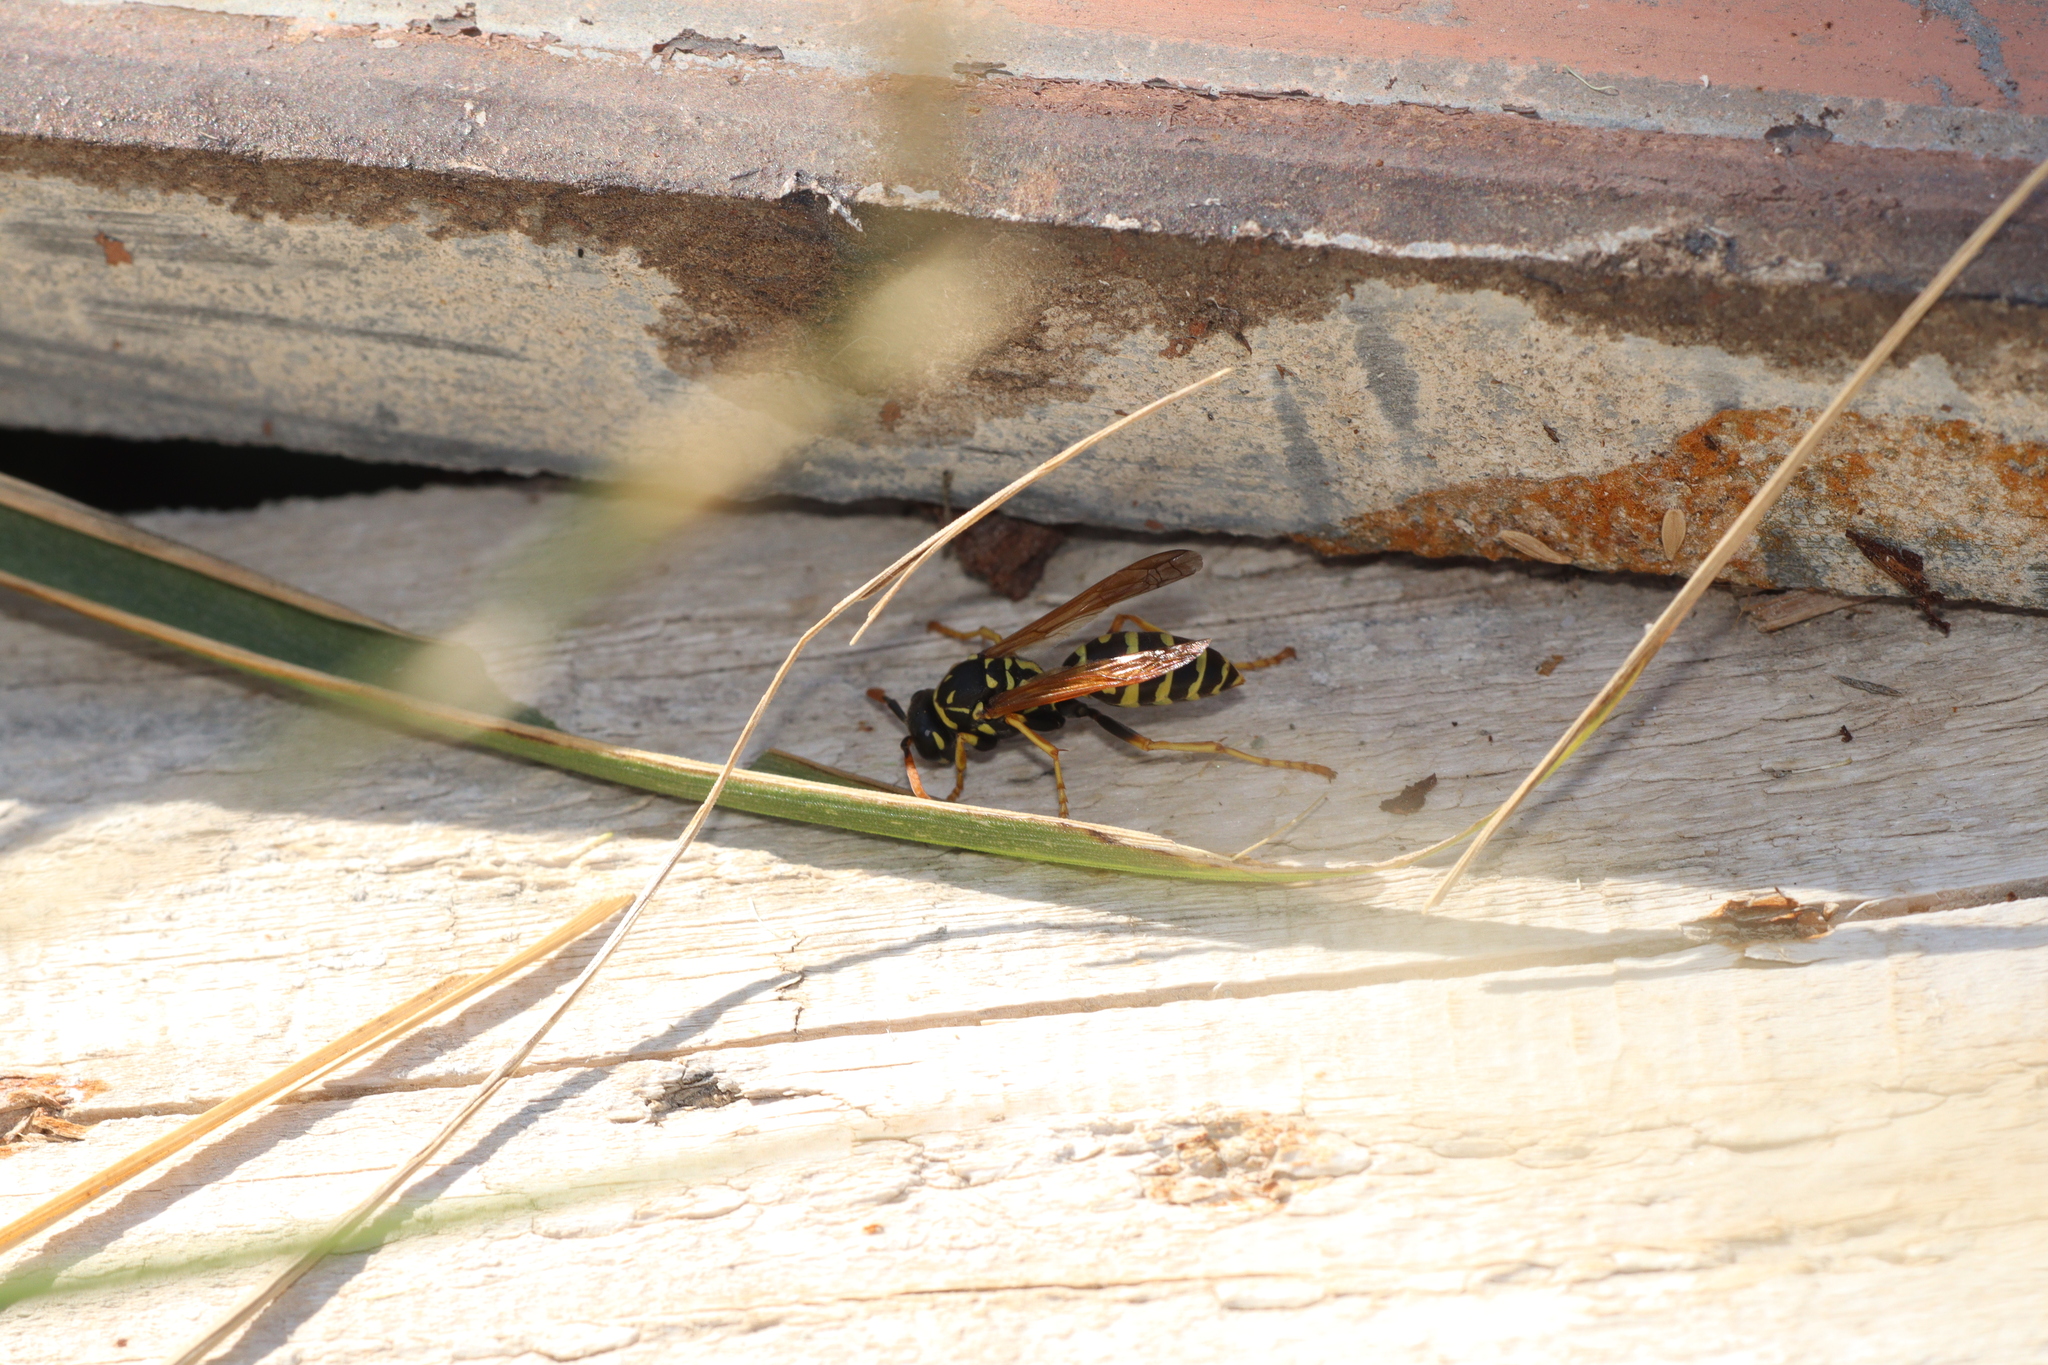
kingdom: Animalia
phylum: Arthropoda
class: Insecta
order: Hymenoptera
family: Eumenidae
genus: Polistes
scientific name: Polistes dominula
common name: Paper wasp
